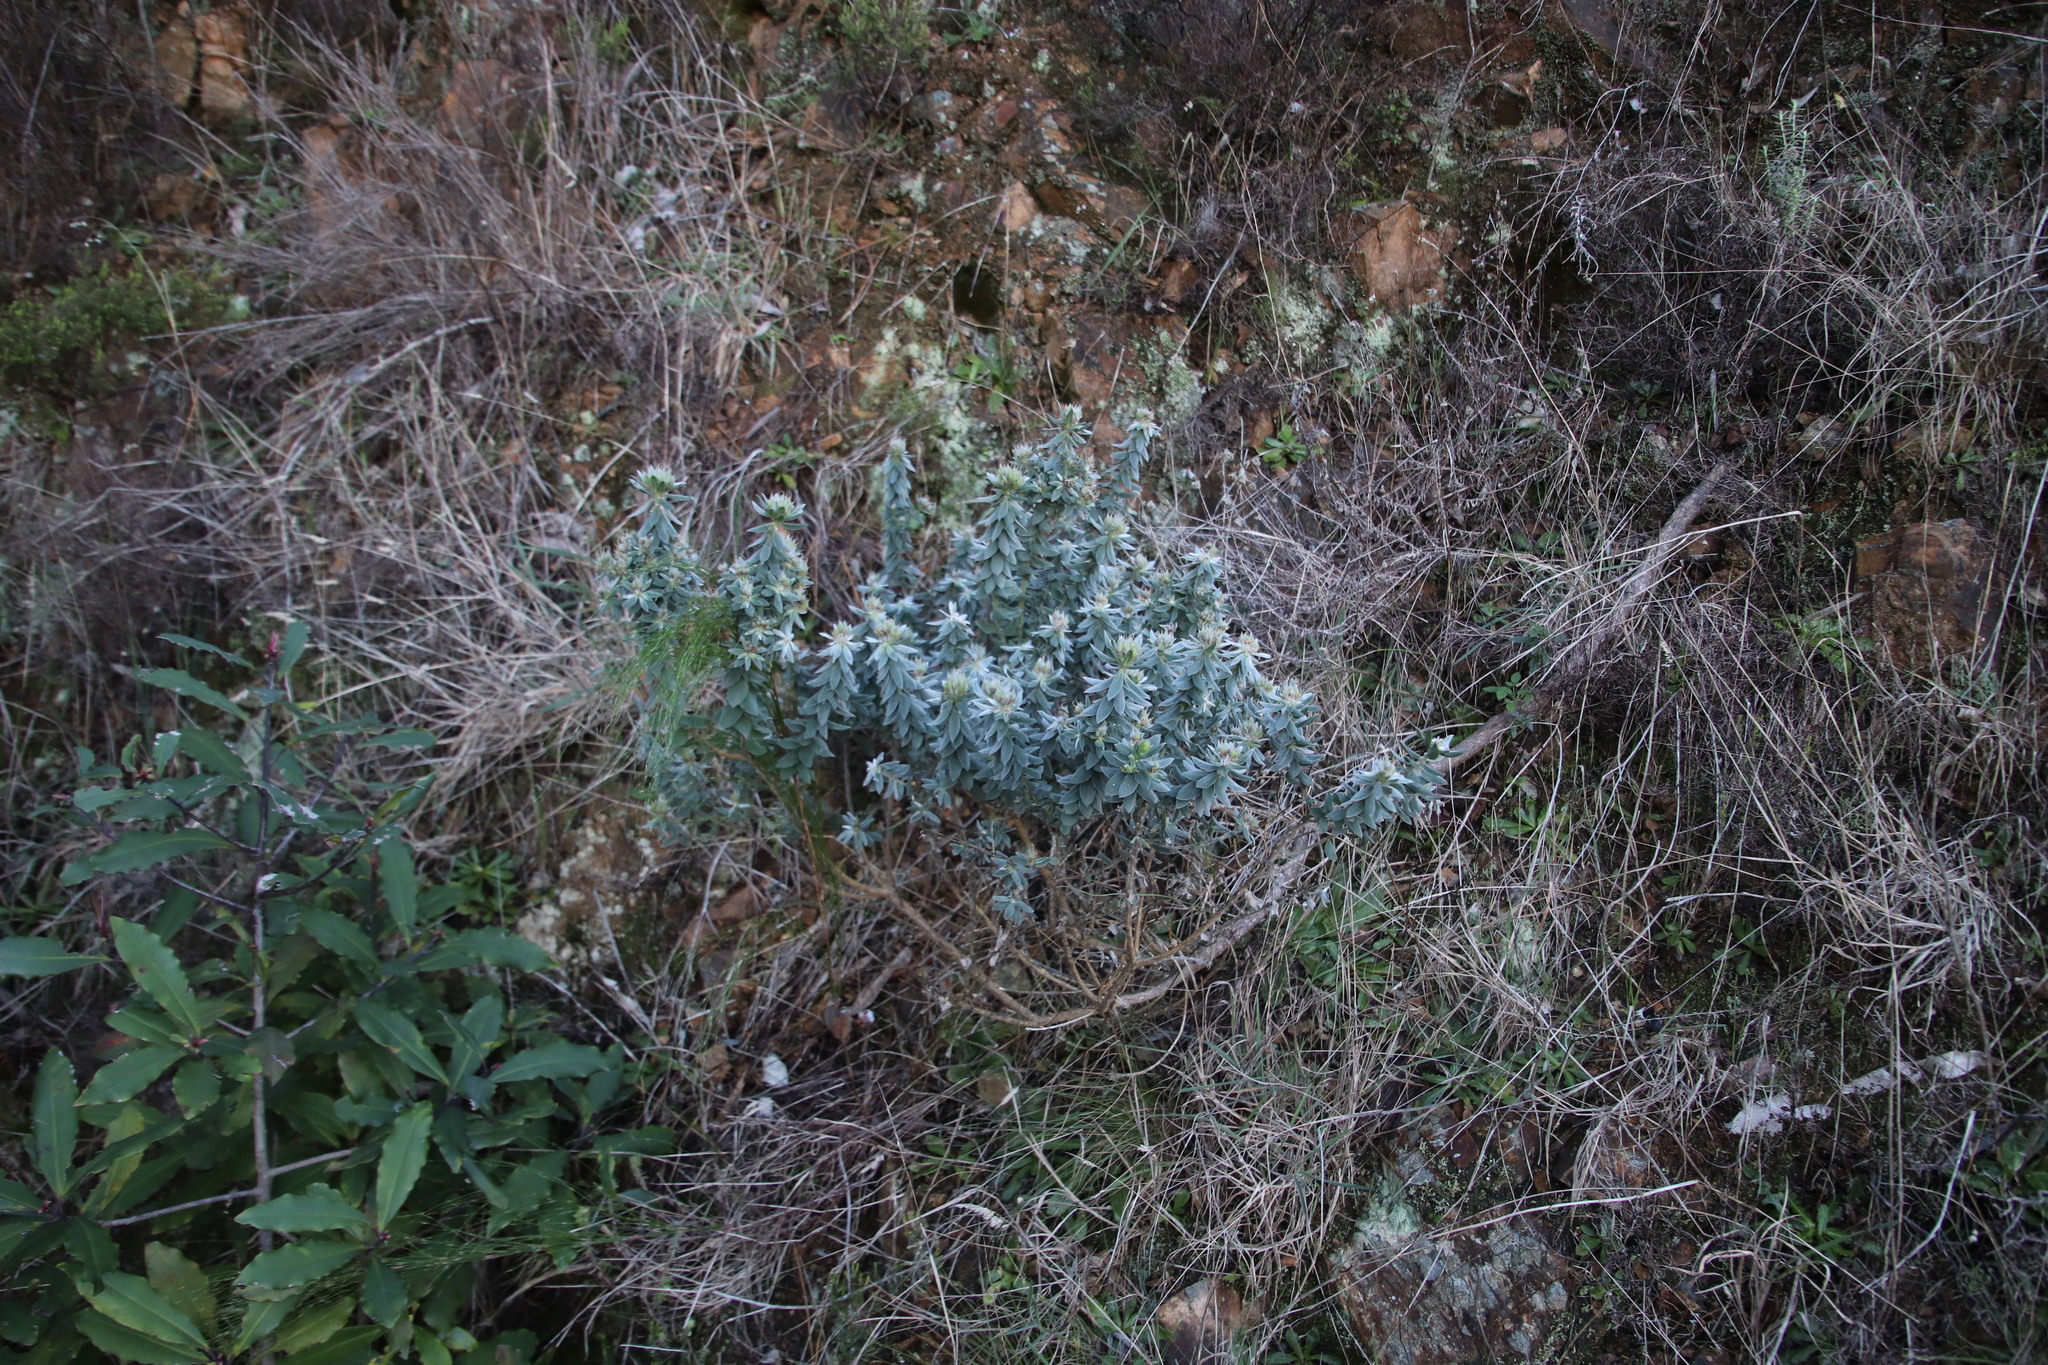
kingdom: Plantae
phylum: Tracheophyta
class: Magnoliopsida
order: Fabales
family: Fabaceae
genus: Xiphotheca
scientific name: Xiphotheca fruticosa
